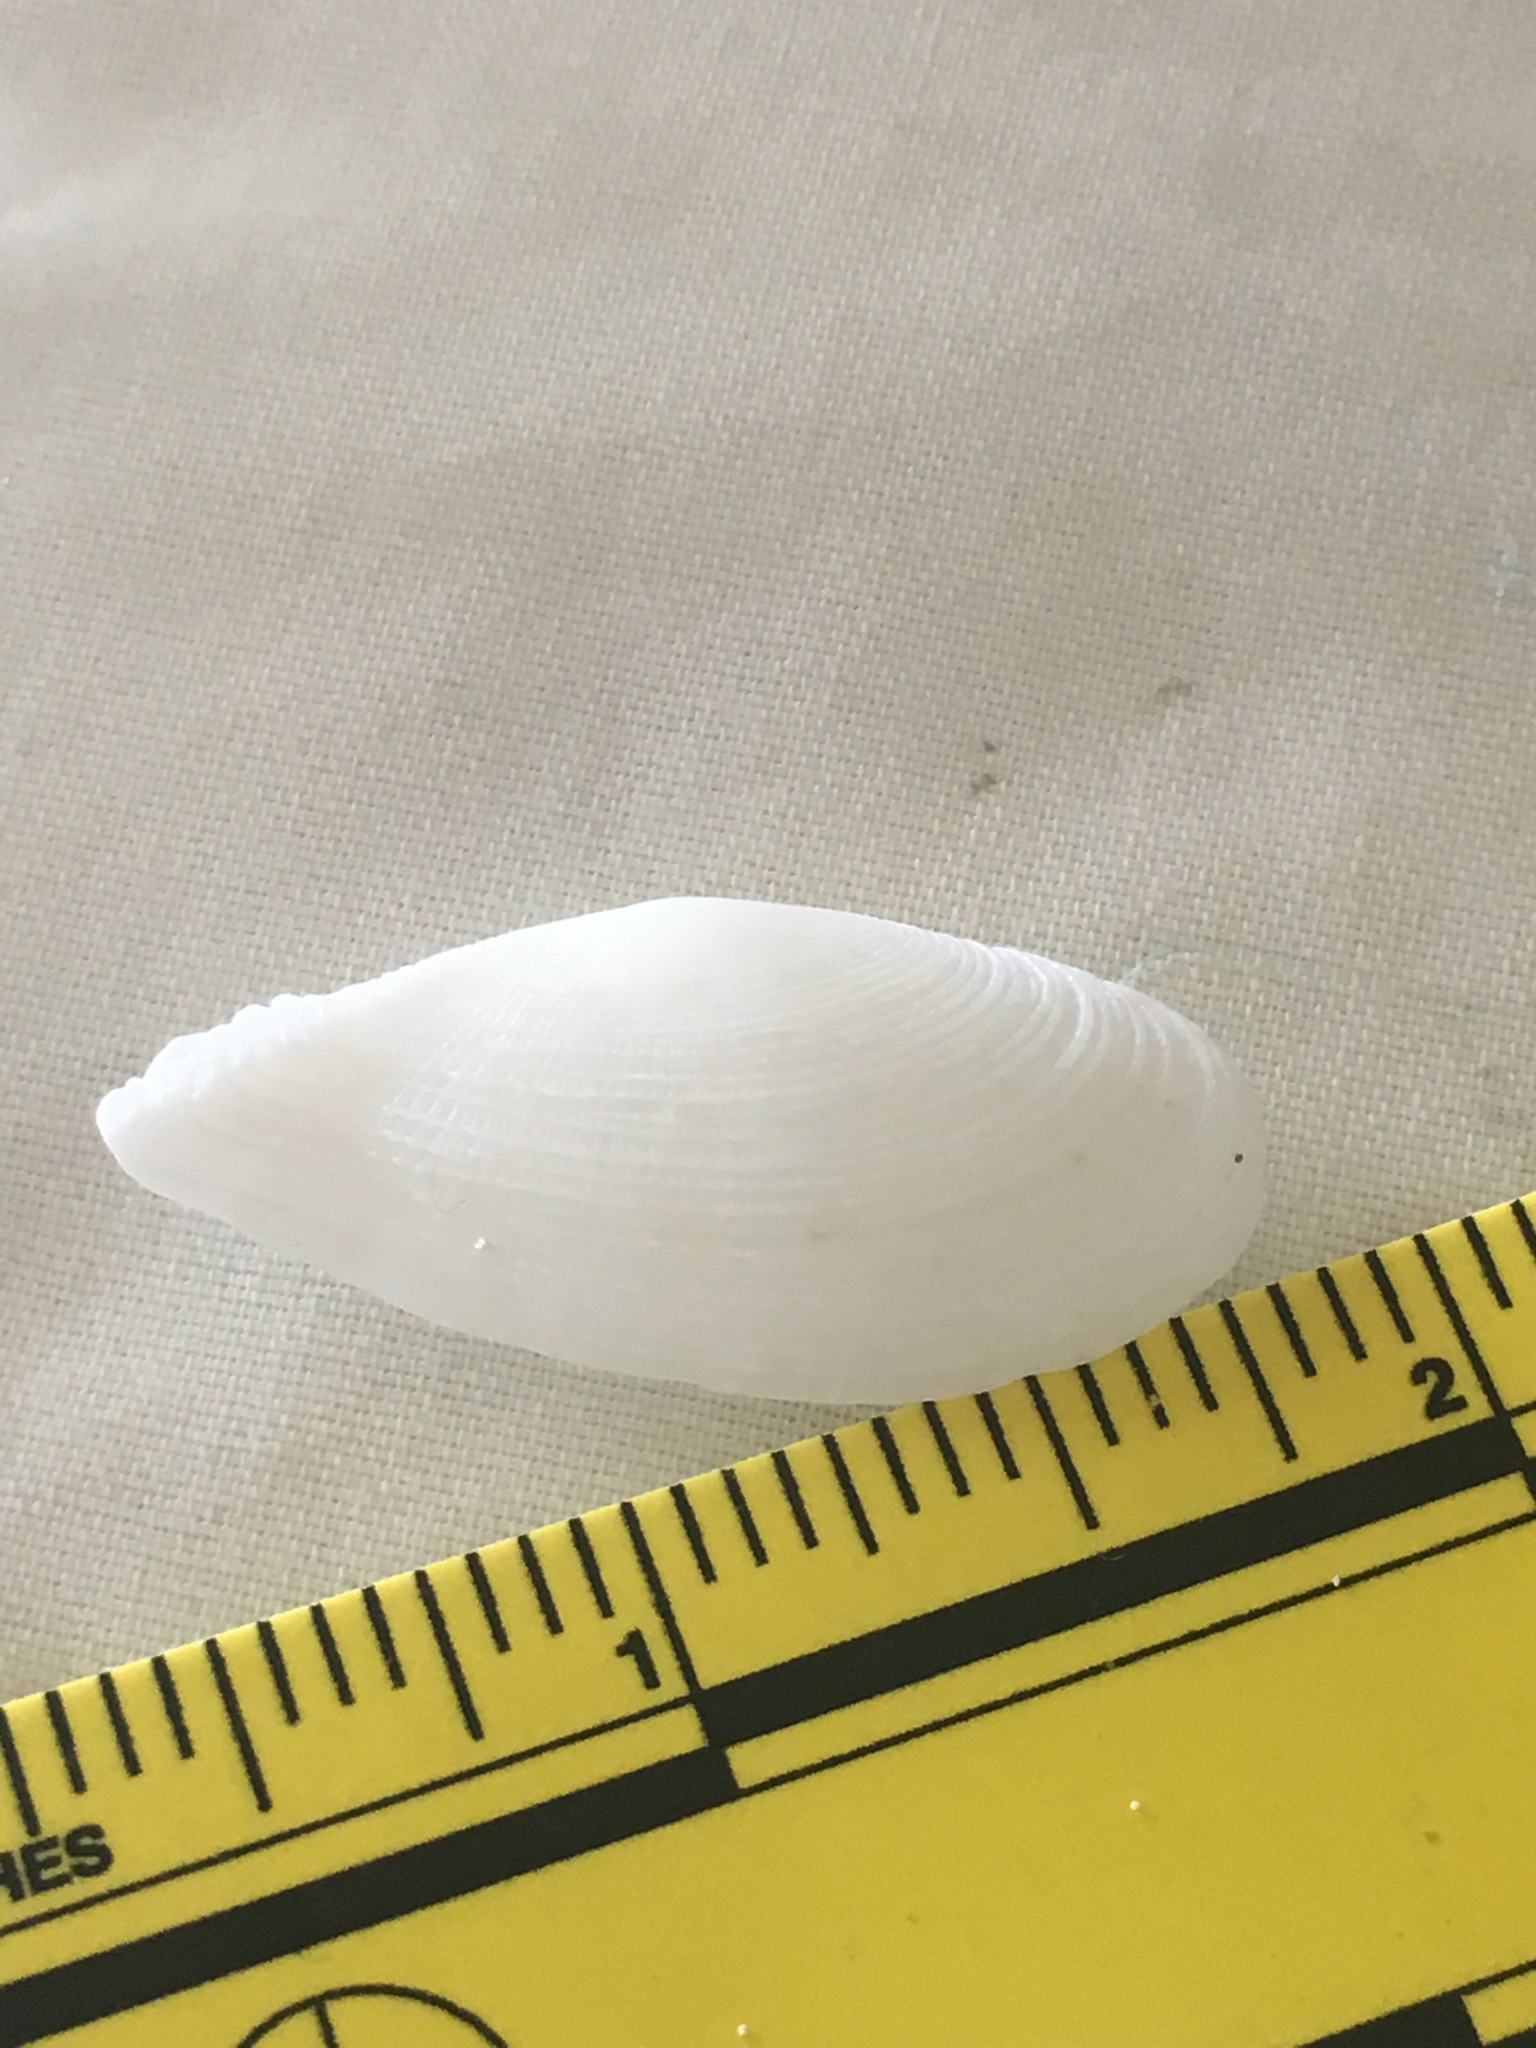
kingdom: Animalia
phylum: Mollusca
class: Bivalvia
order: Cardiida
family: Tellinidae
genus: Tellinella
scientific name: Tellinella listeri
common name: Speckled tellin
